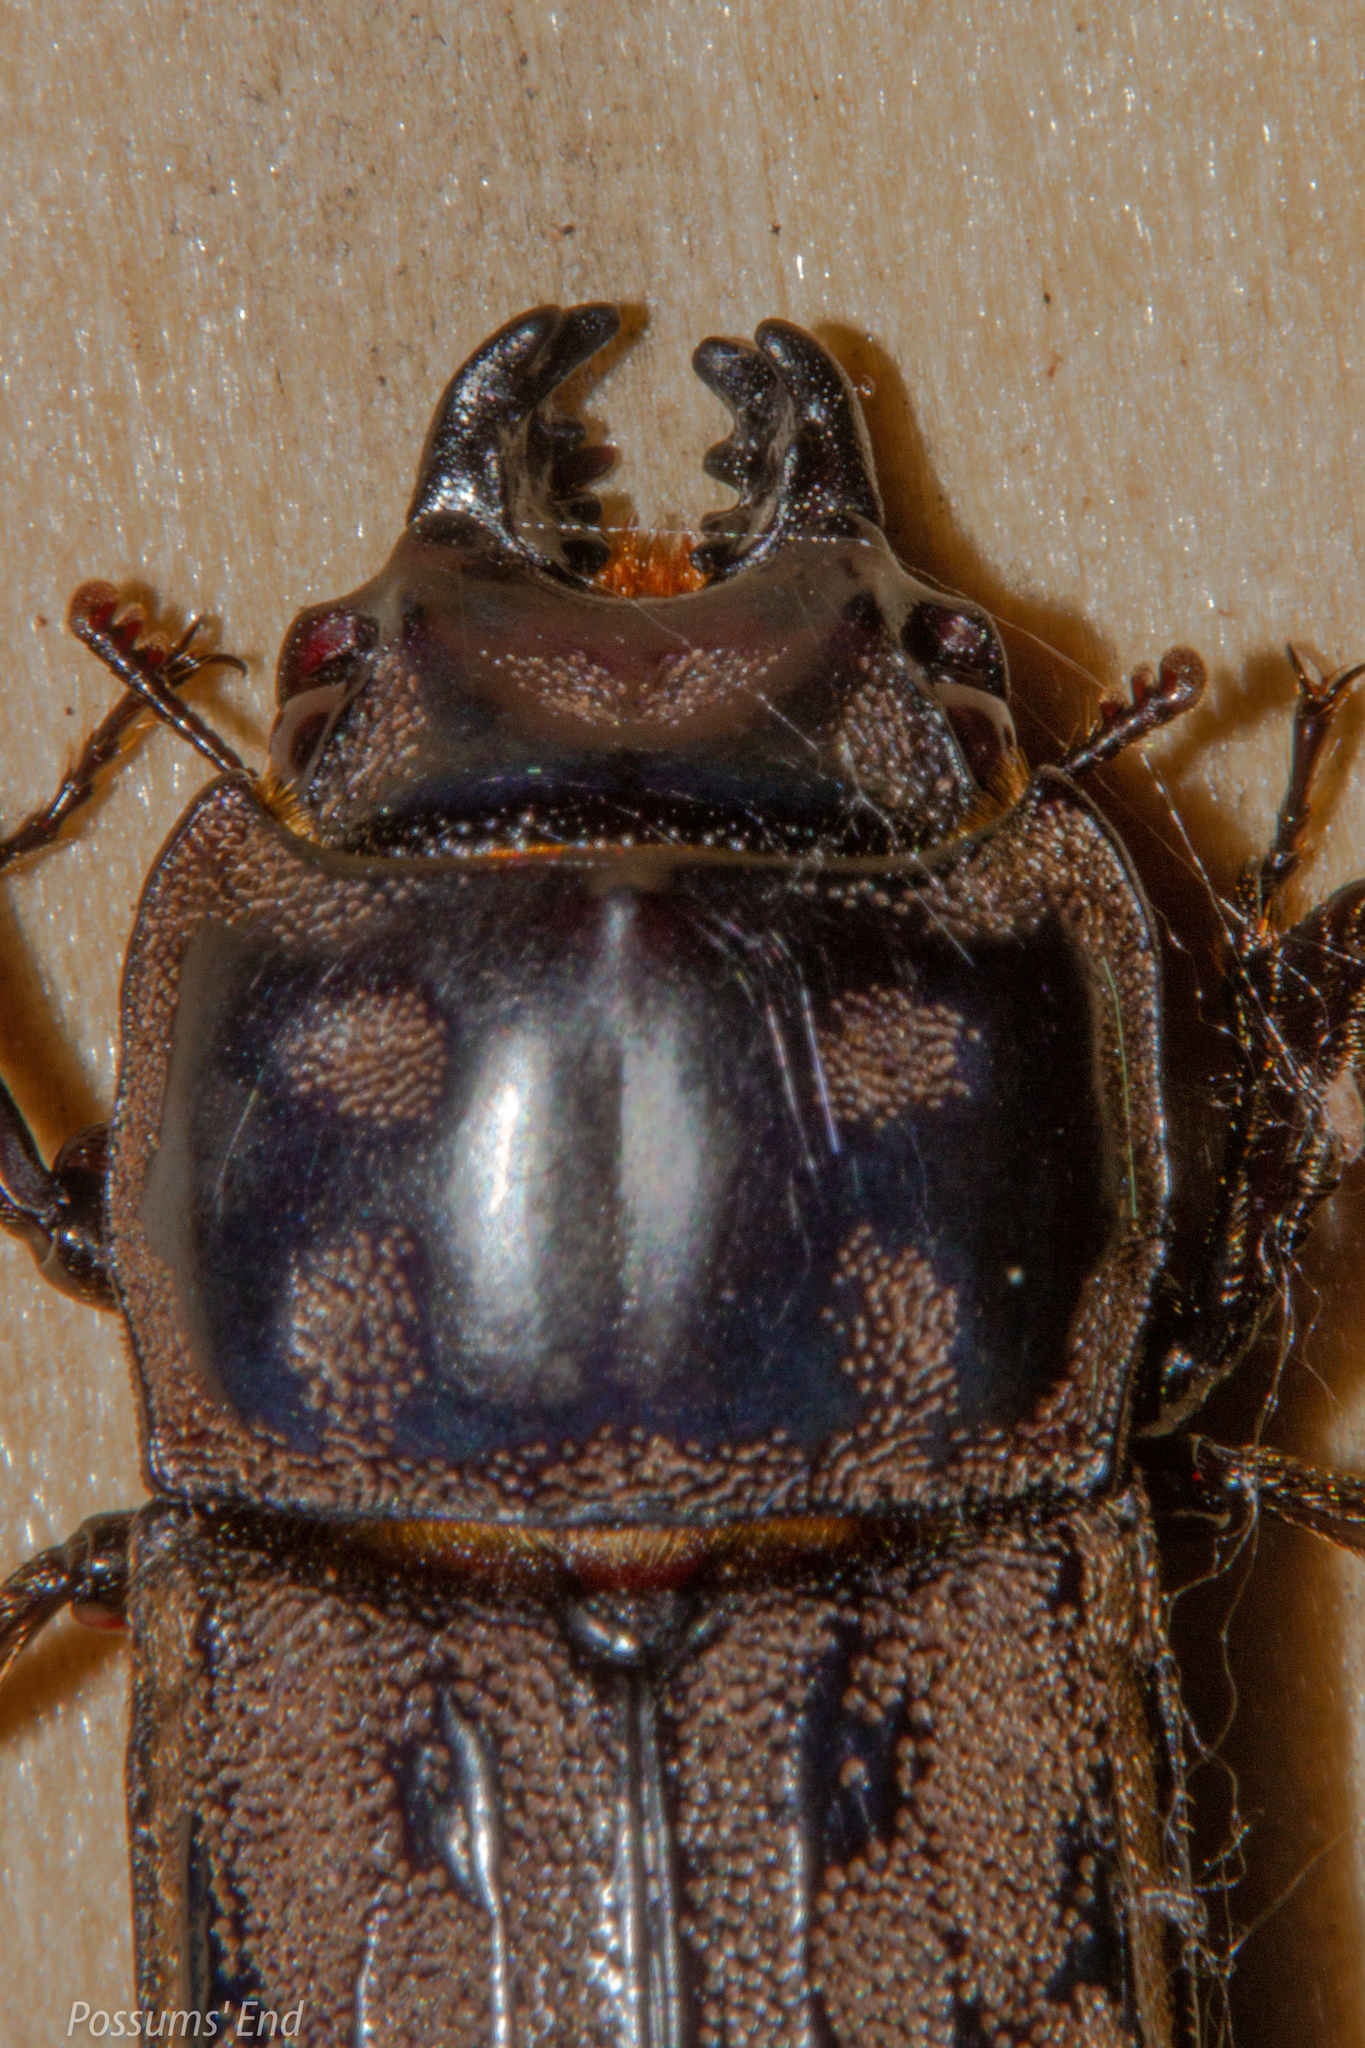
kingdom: Animalia
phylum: Arthropoda
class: Insecta
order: Coleoptera
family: Lucanidae
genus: Paralissotes
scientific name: Paralissotes reticulatus
